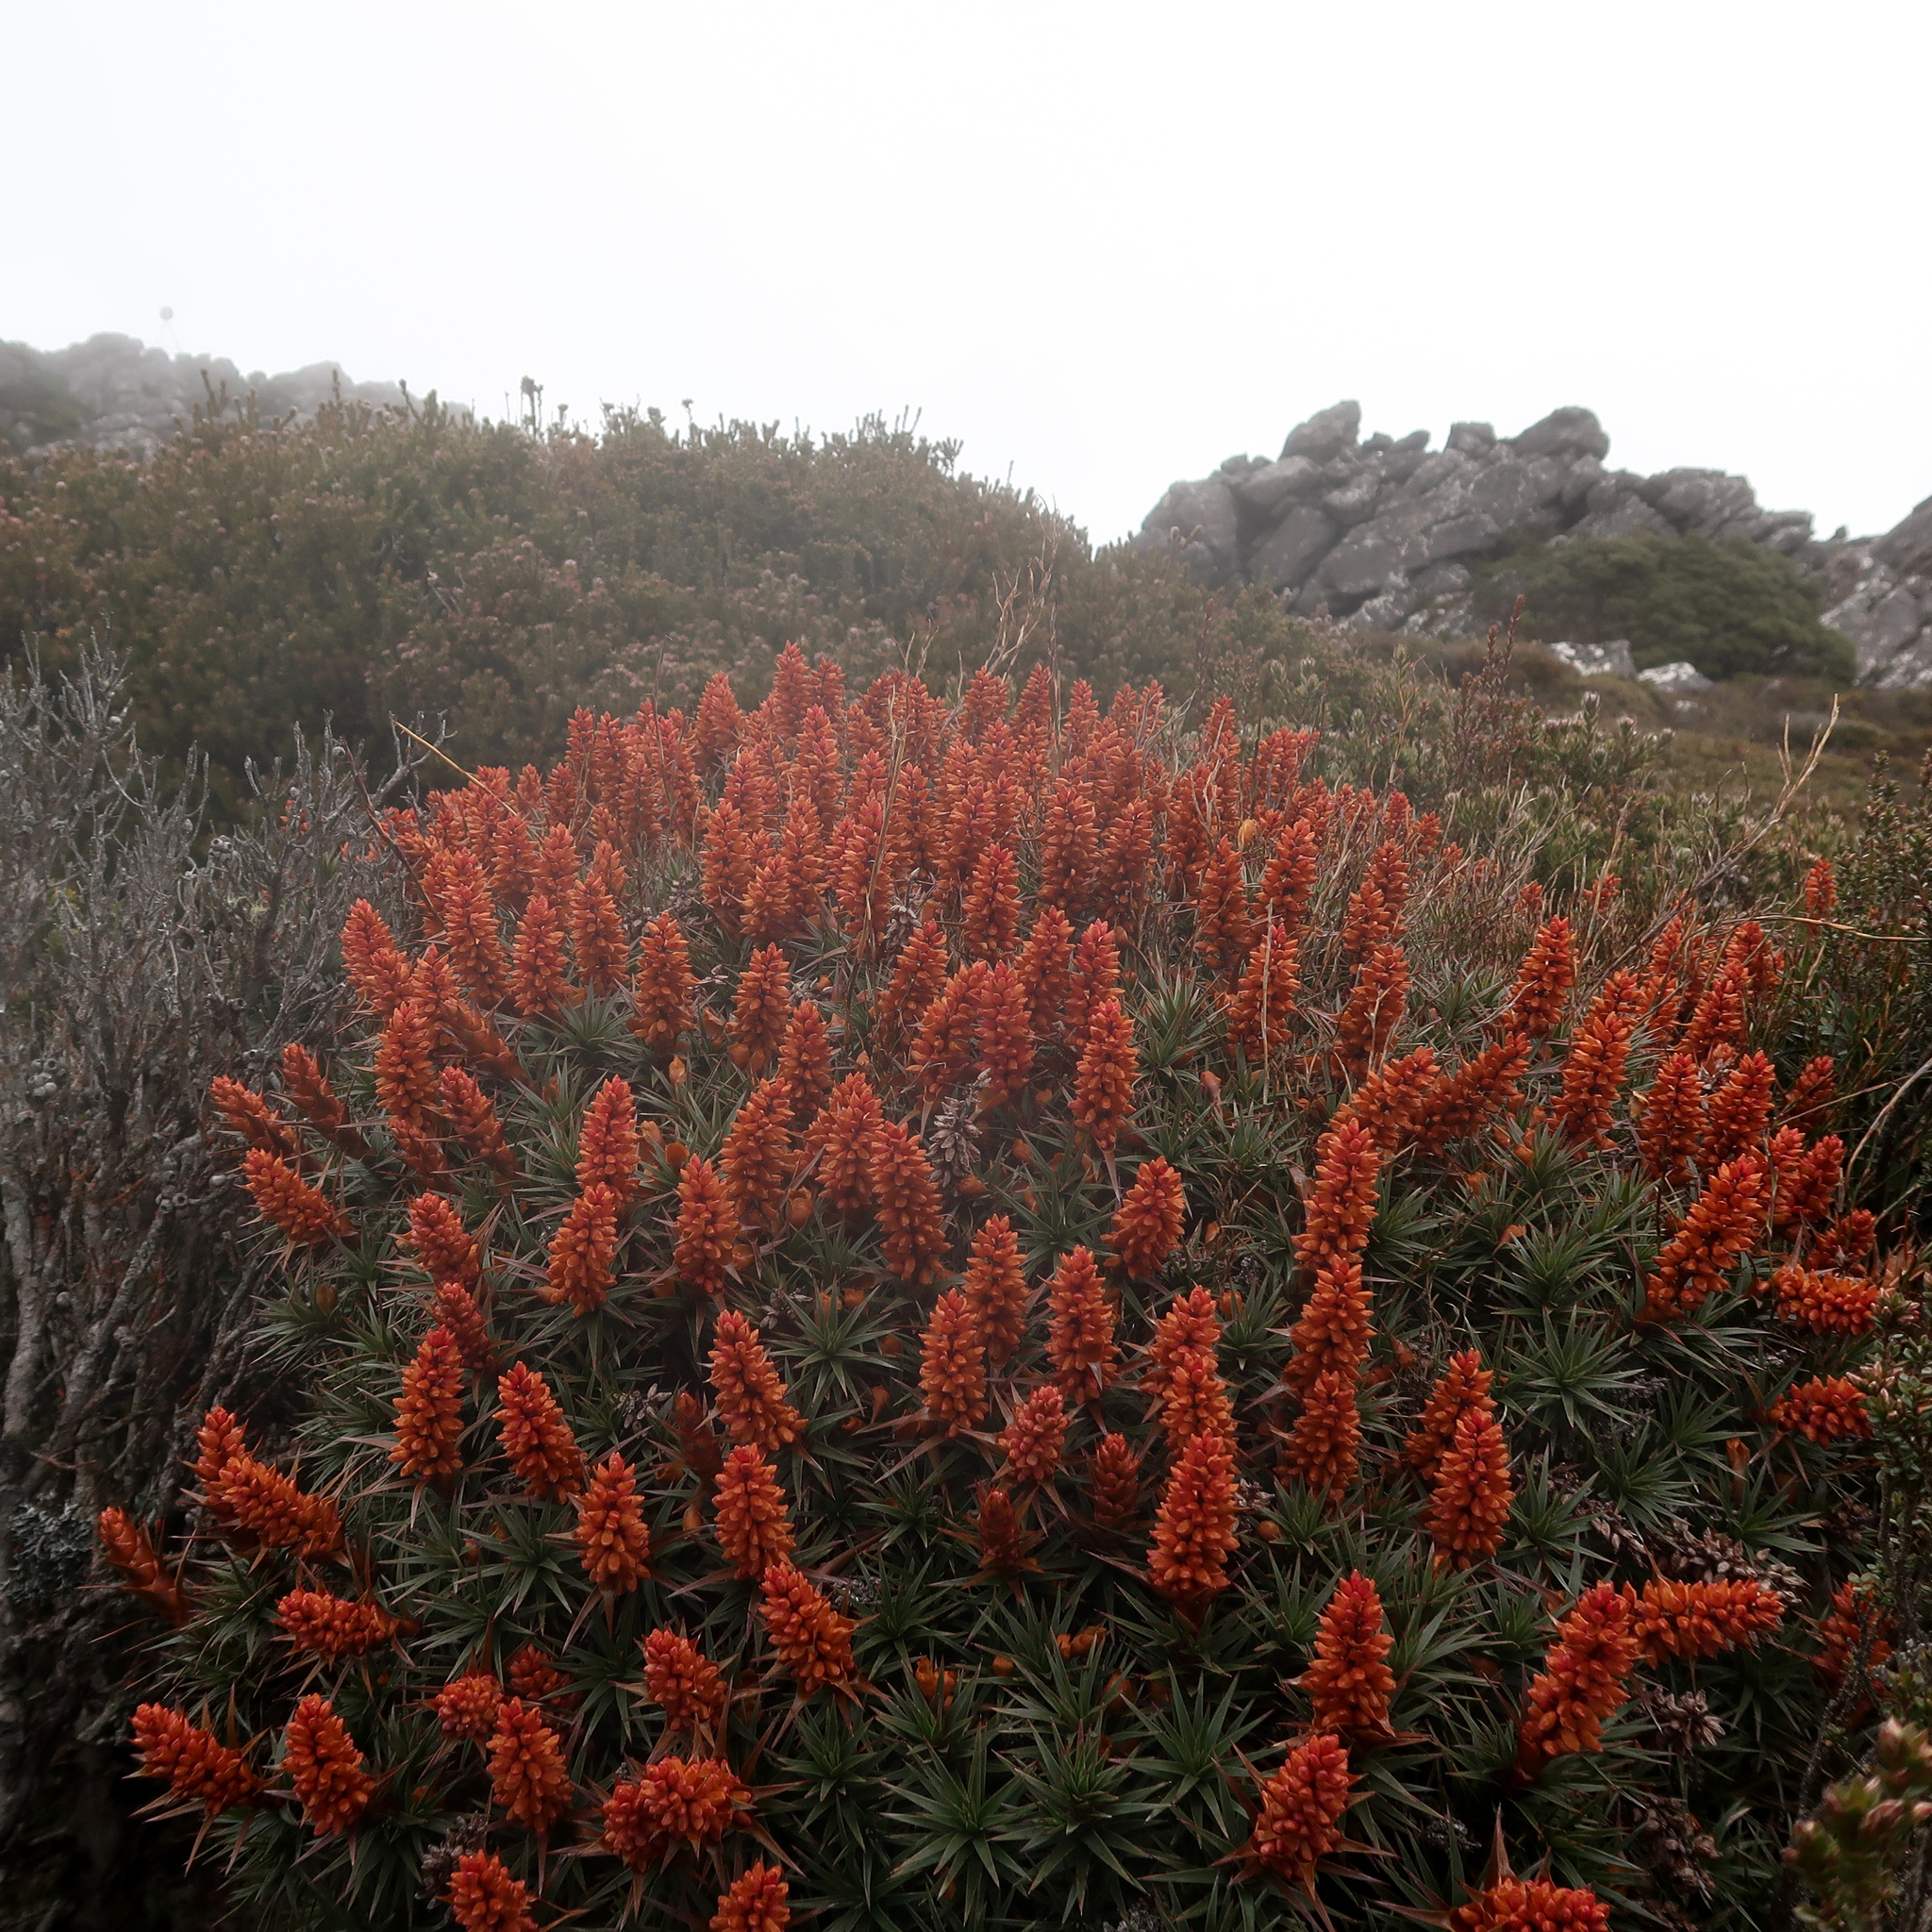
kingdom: Plantae
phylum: Tracheophyta
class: Magnoliopsida
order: Ericales
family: Ericaceae
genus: Dracophyllum
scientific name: Dracophyllum persistentifolium
